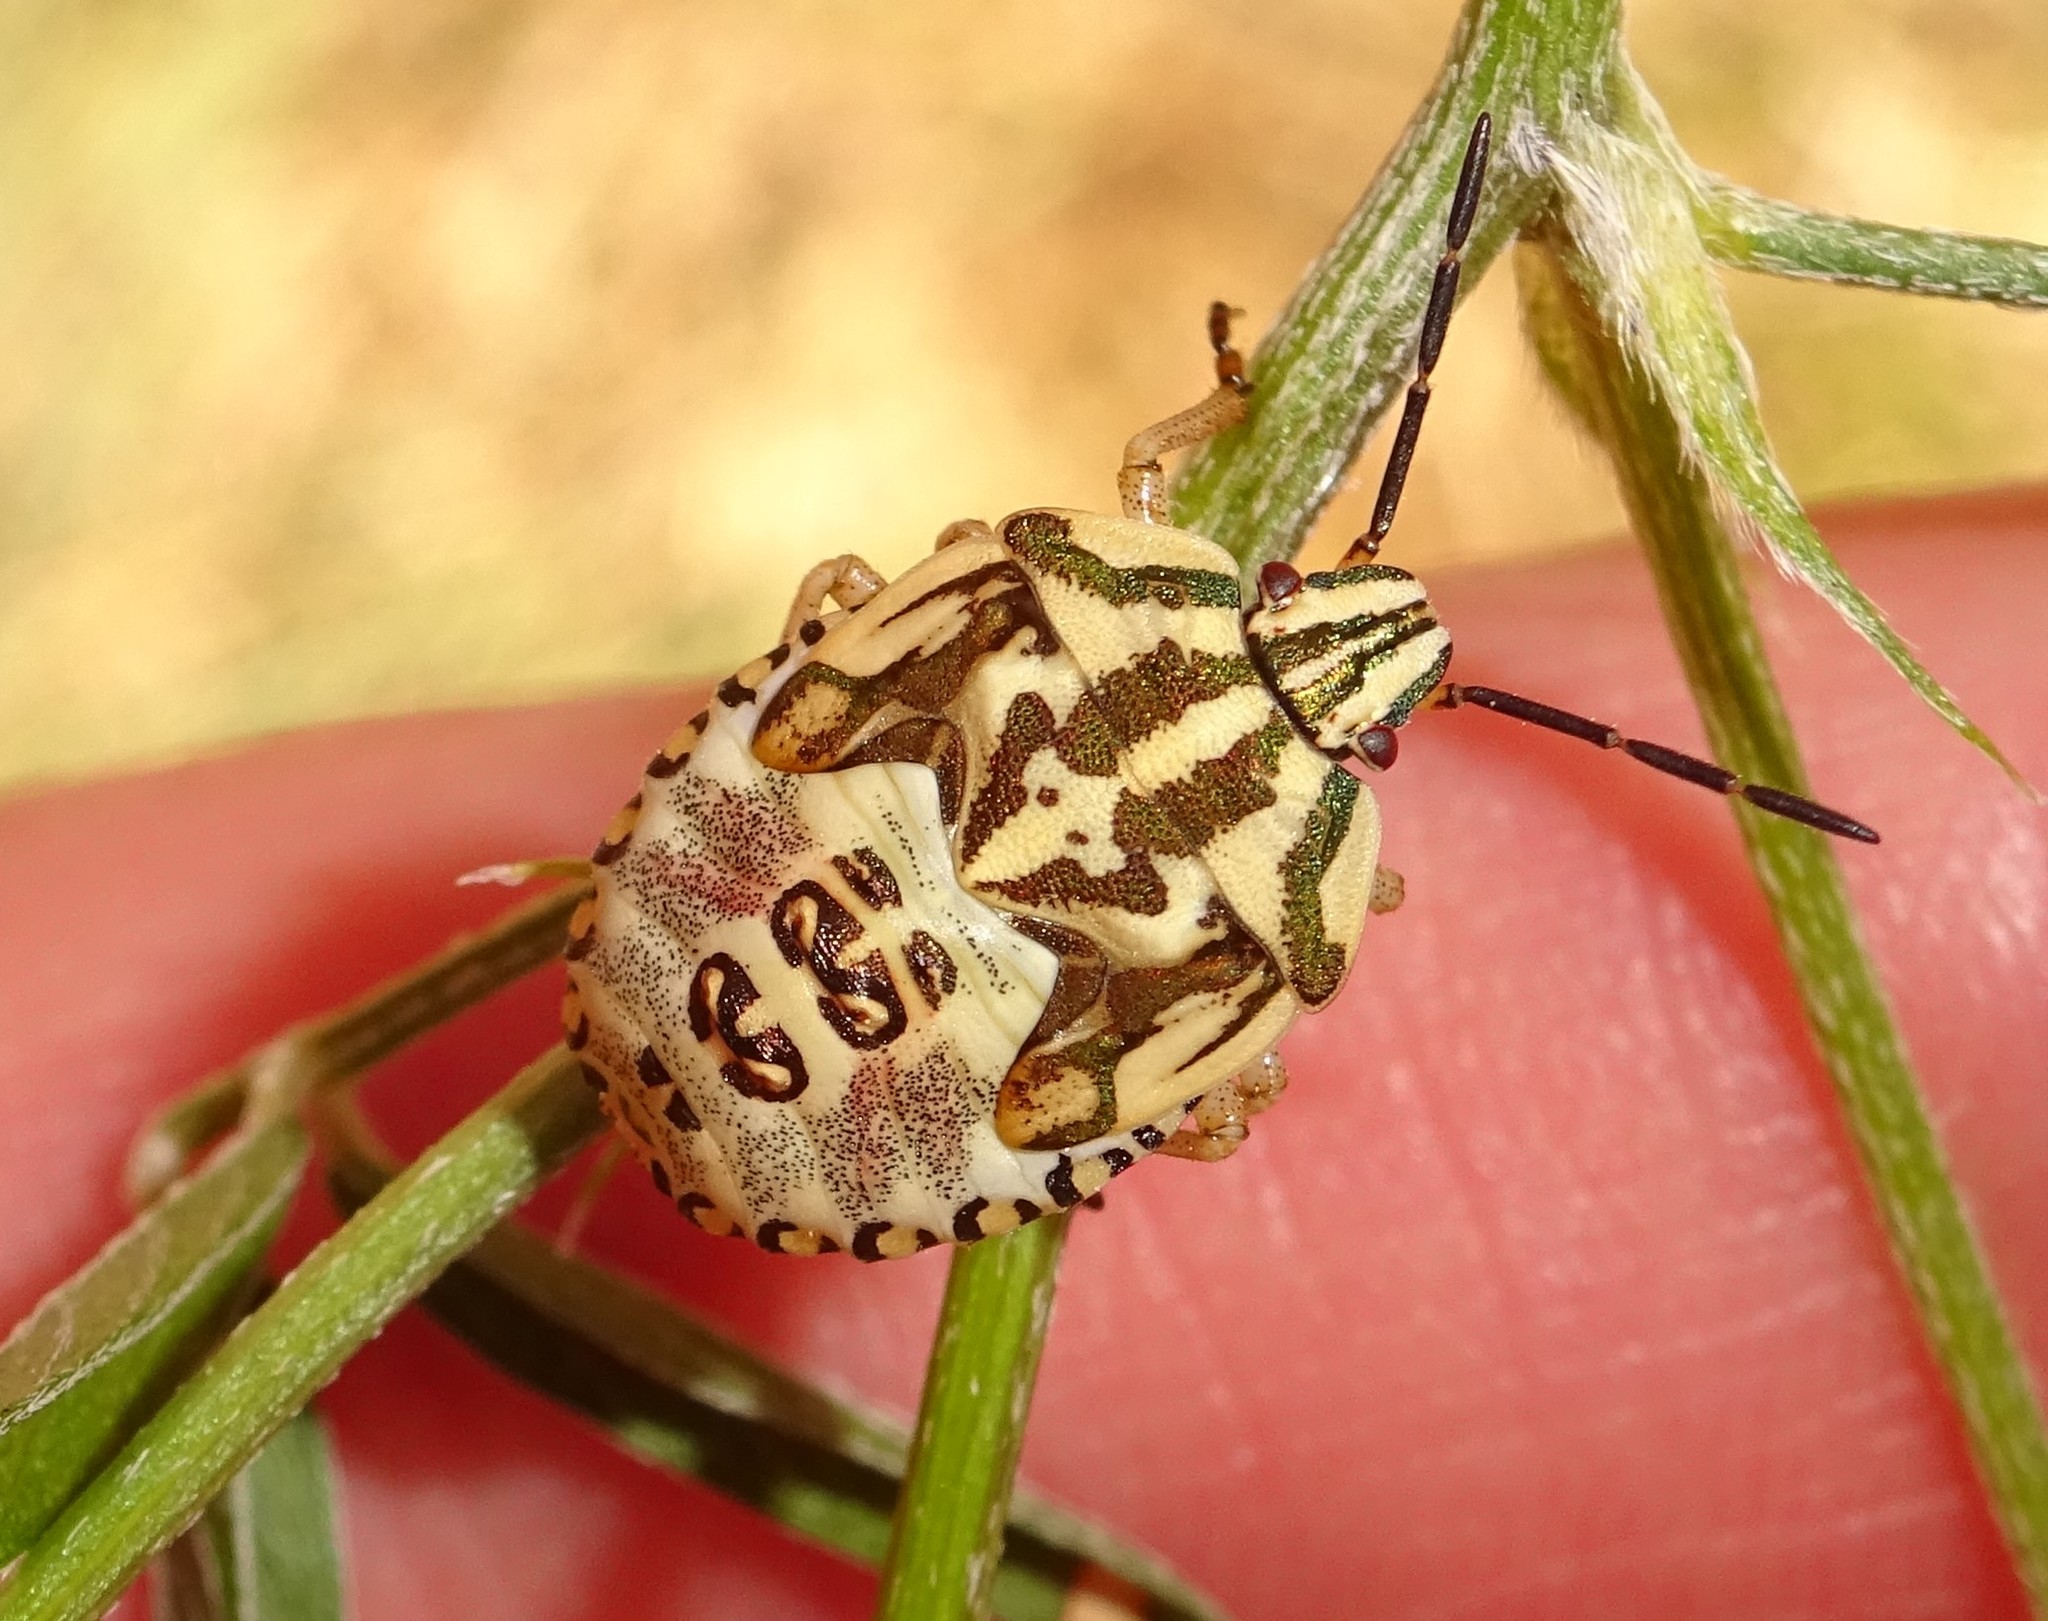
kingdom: Animalia
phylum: Arthropoda
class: Insecta
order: Hemiptera
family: Pentatomidae
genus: Carpocoris
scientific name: Carpocoris purpureipennis
